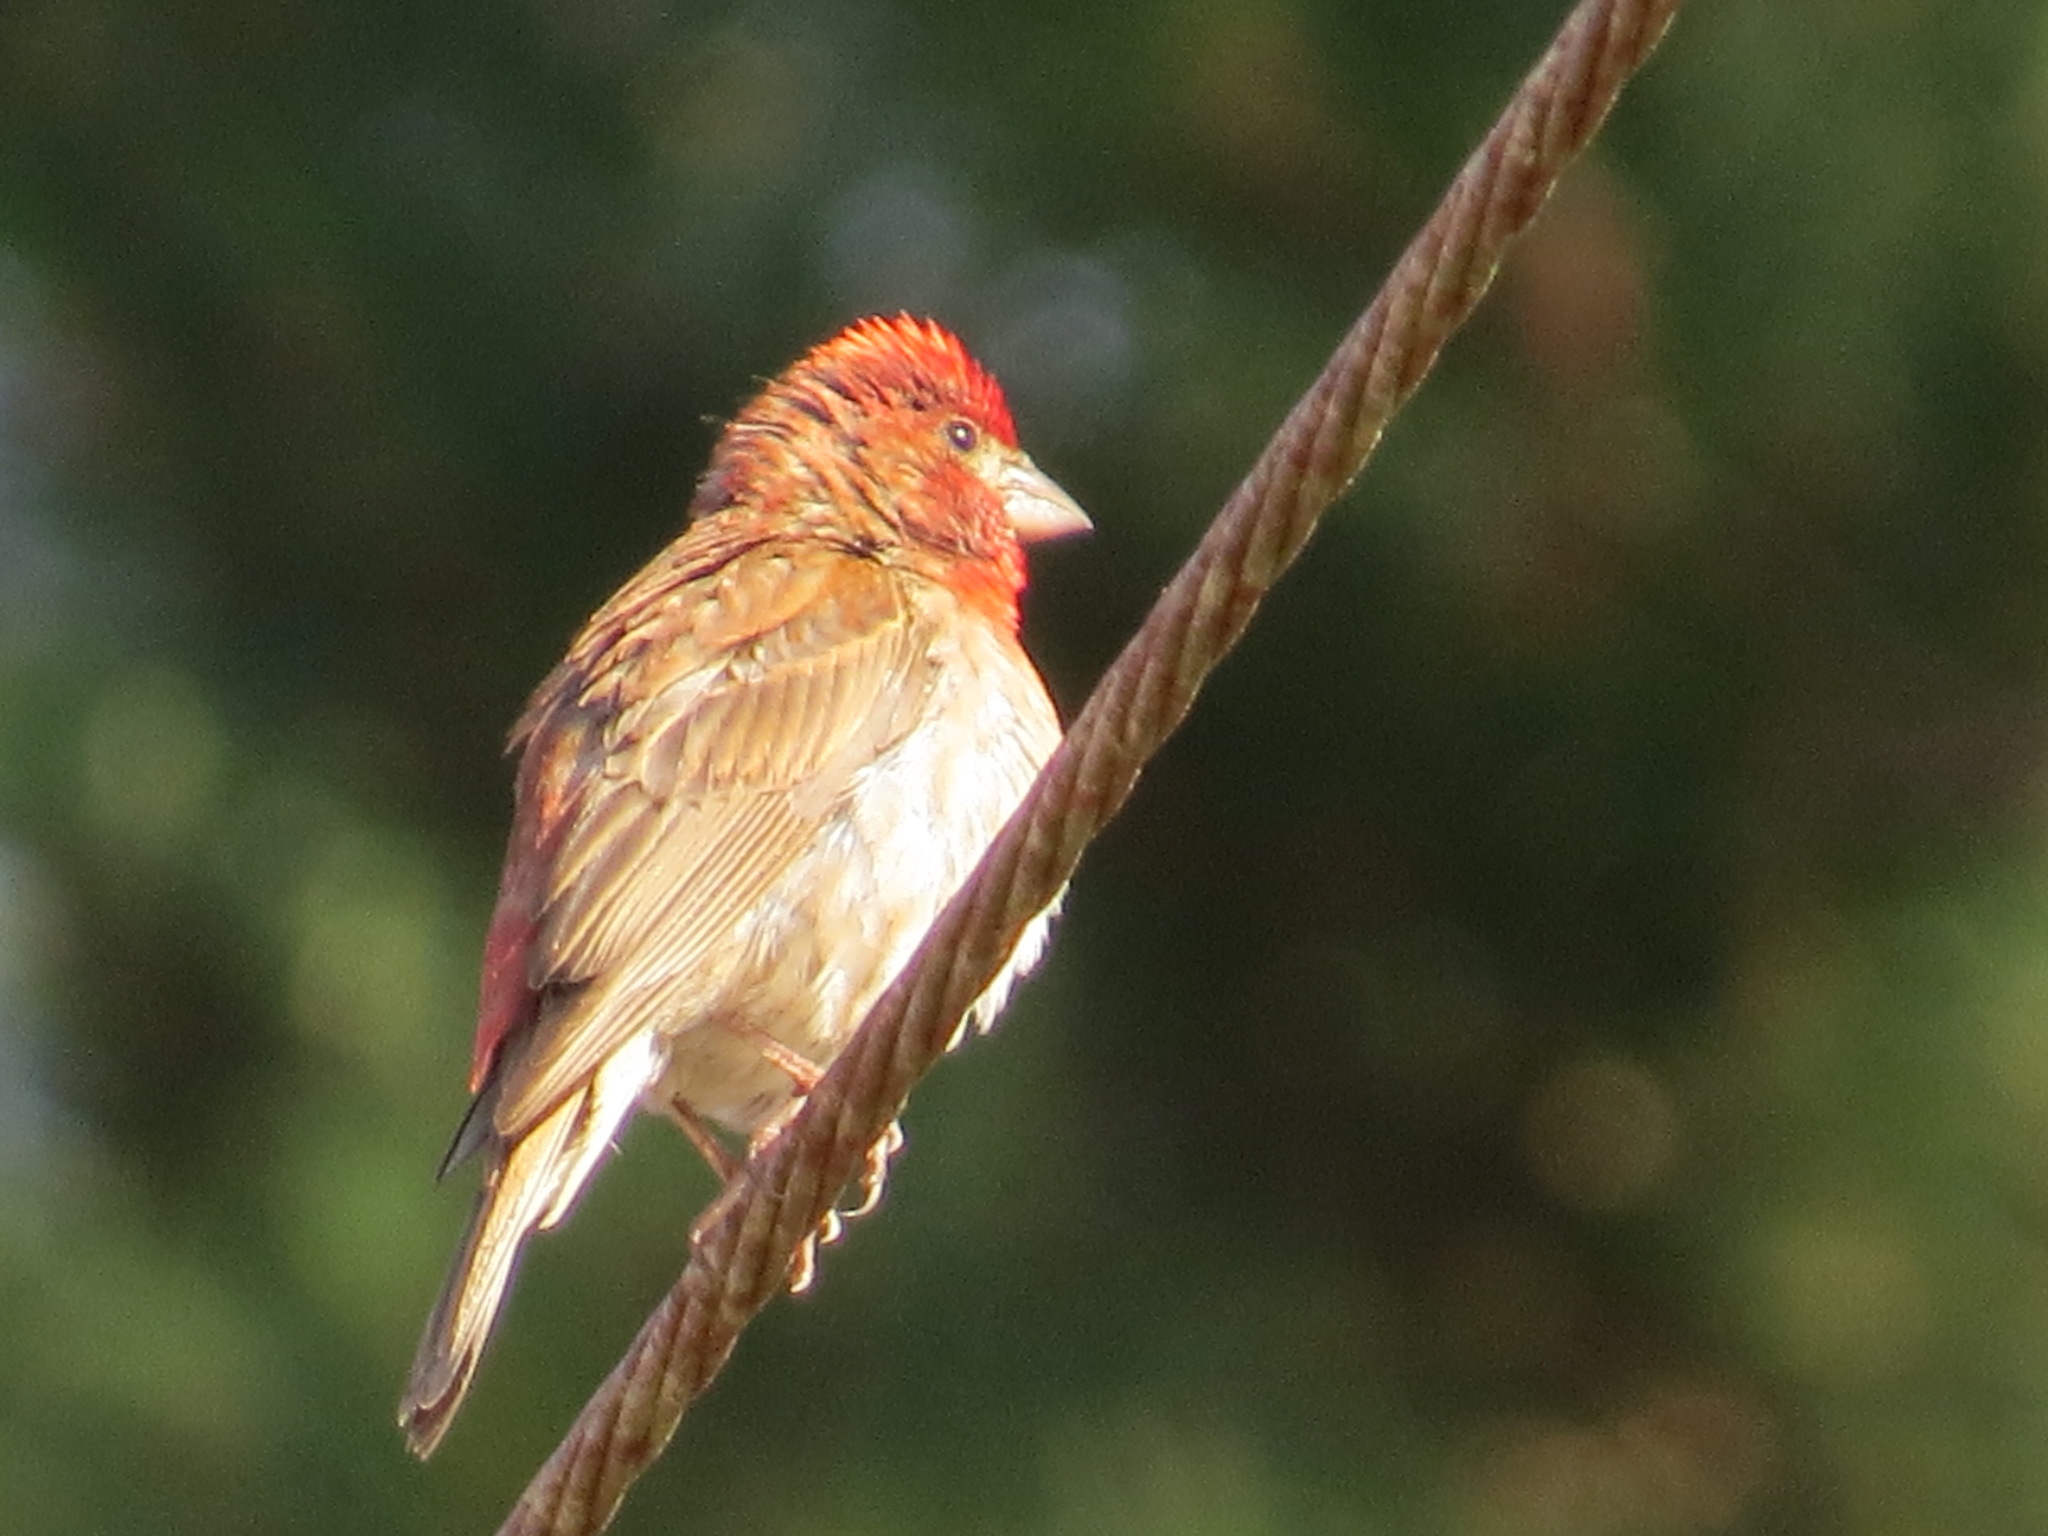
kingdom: Animalia
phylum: Chordata
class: Aves
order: Passeriformes
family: Fringillidae
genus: Haemorhous
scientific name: Haemorhous purpureus
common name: Purple finch
